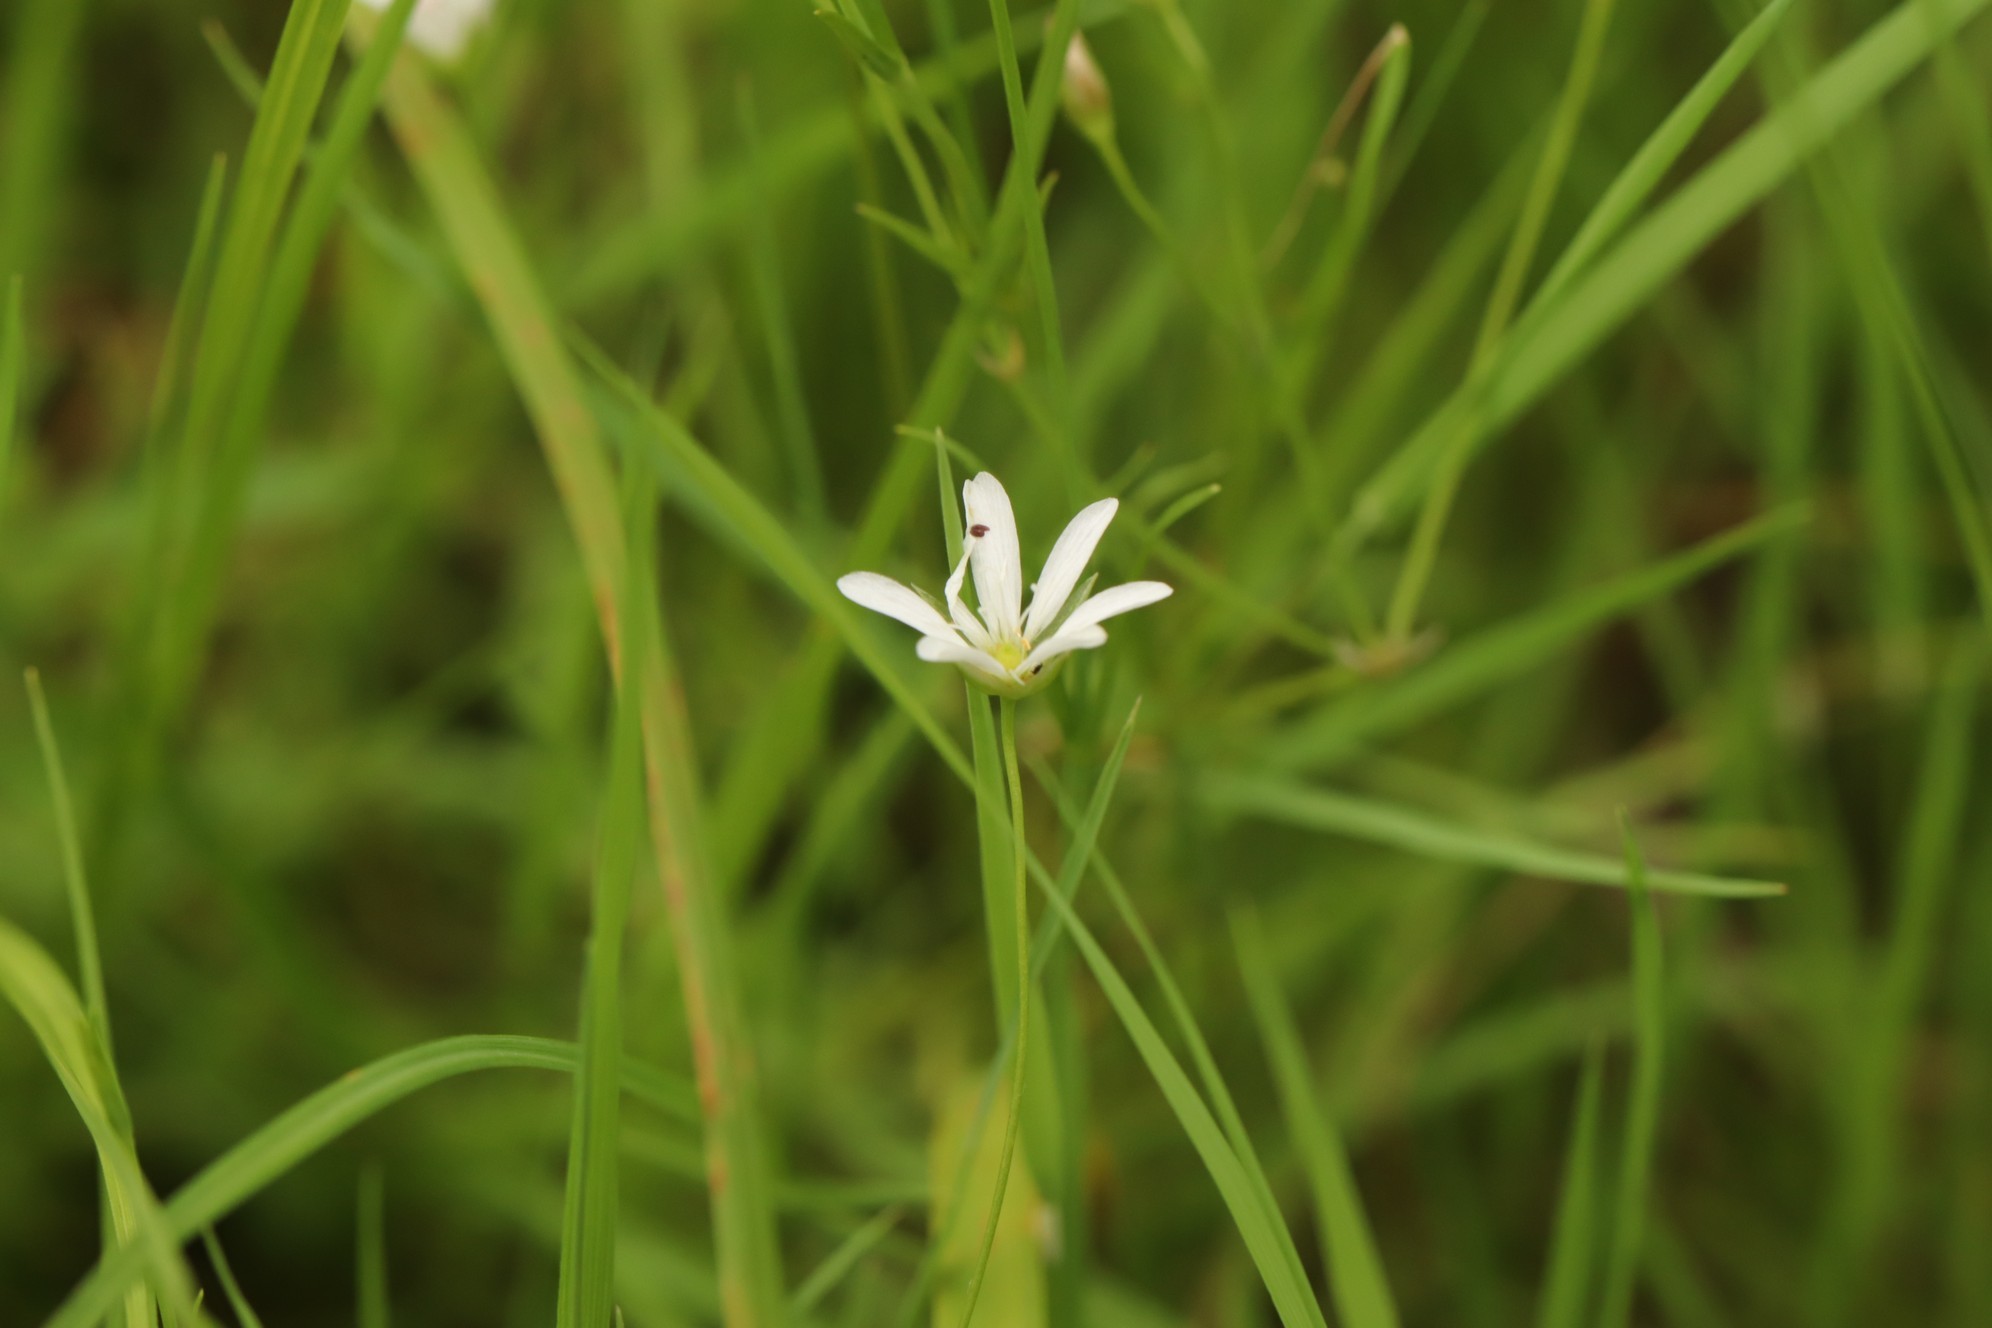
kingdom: Plantae
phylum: Tracheophyta
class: Magnoliopsida
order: Caryophyllales
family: Caryophyllaceae
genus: Stellaria
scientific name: Stellaria palustris
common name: Marsh stitchwort
